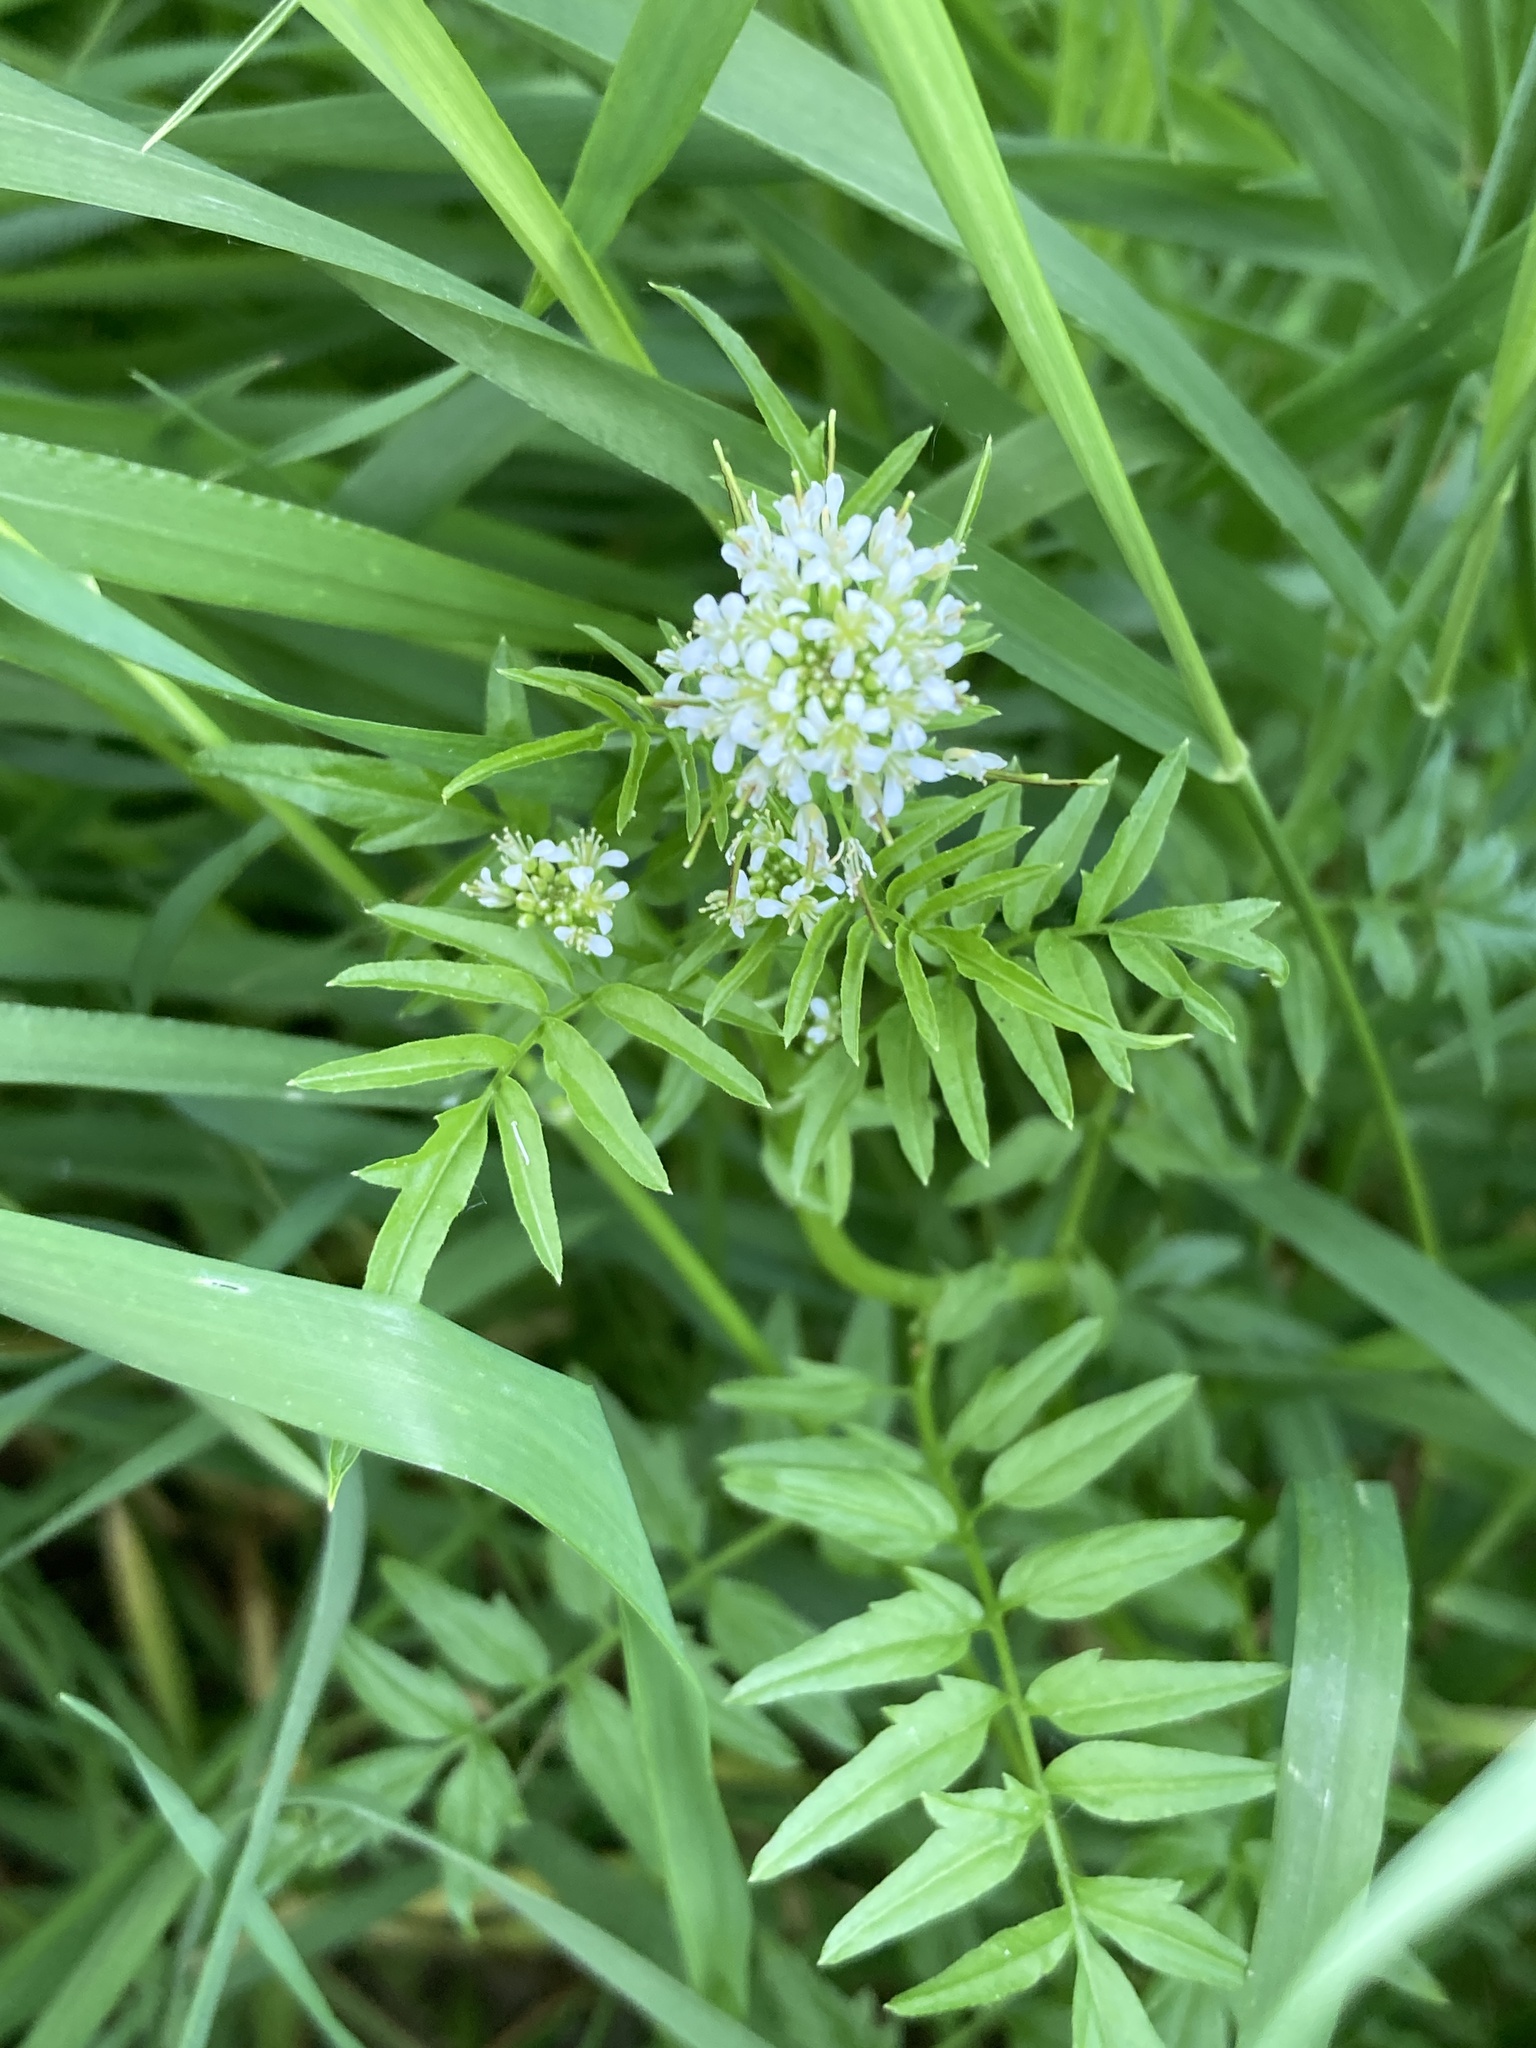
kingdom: Plantae
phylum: Tracheophyta
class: Magnoliopsida
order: Brassicales
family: Brassicaceae
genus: Cardamine
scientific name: Cardamine impatiens
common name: Narrow-leaved bitter-cress
